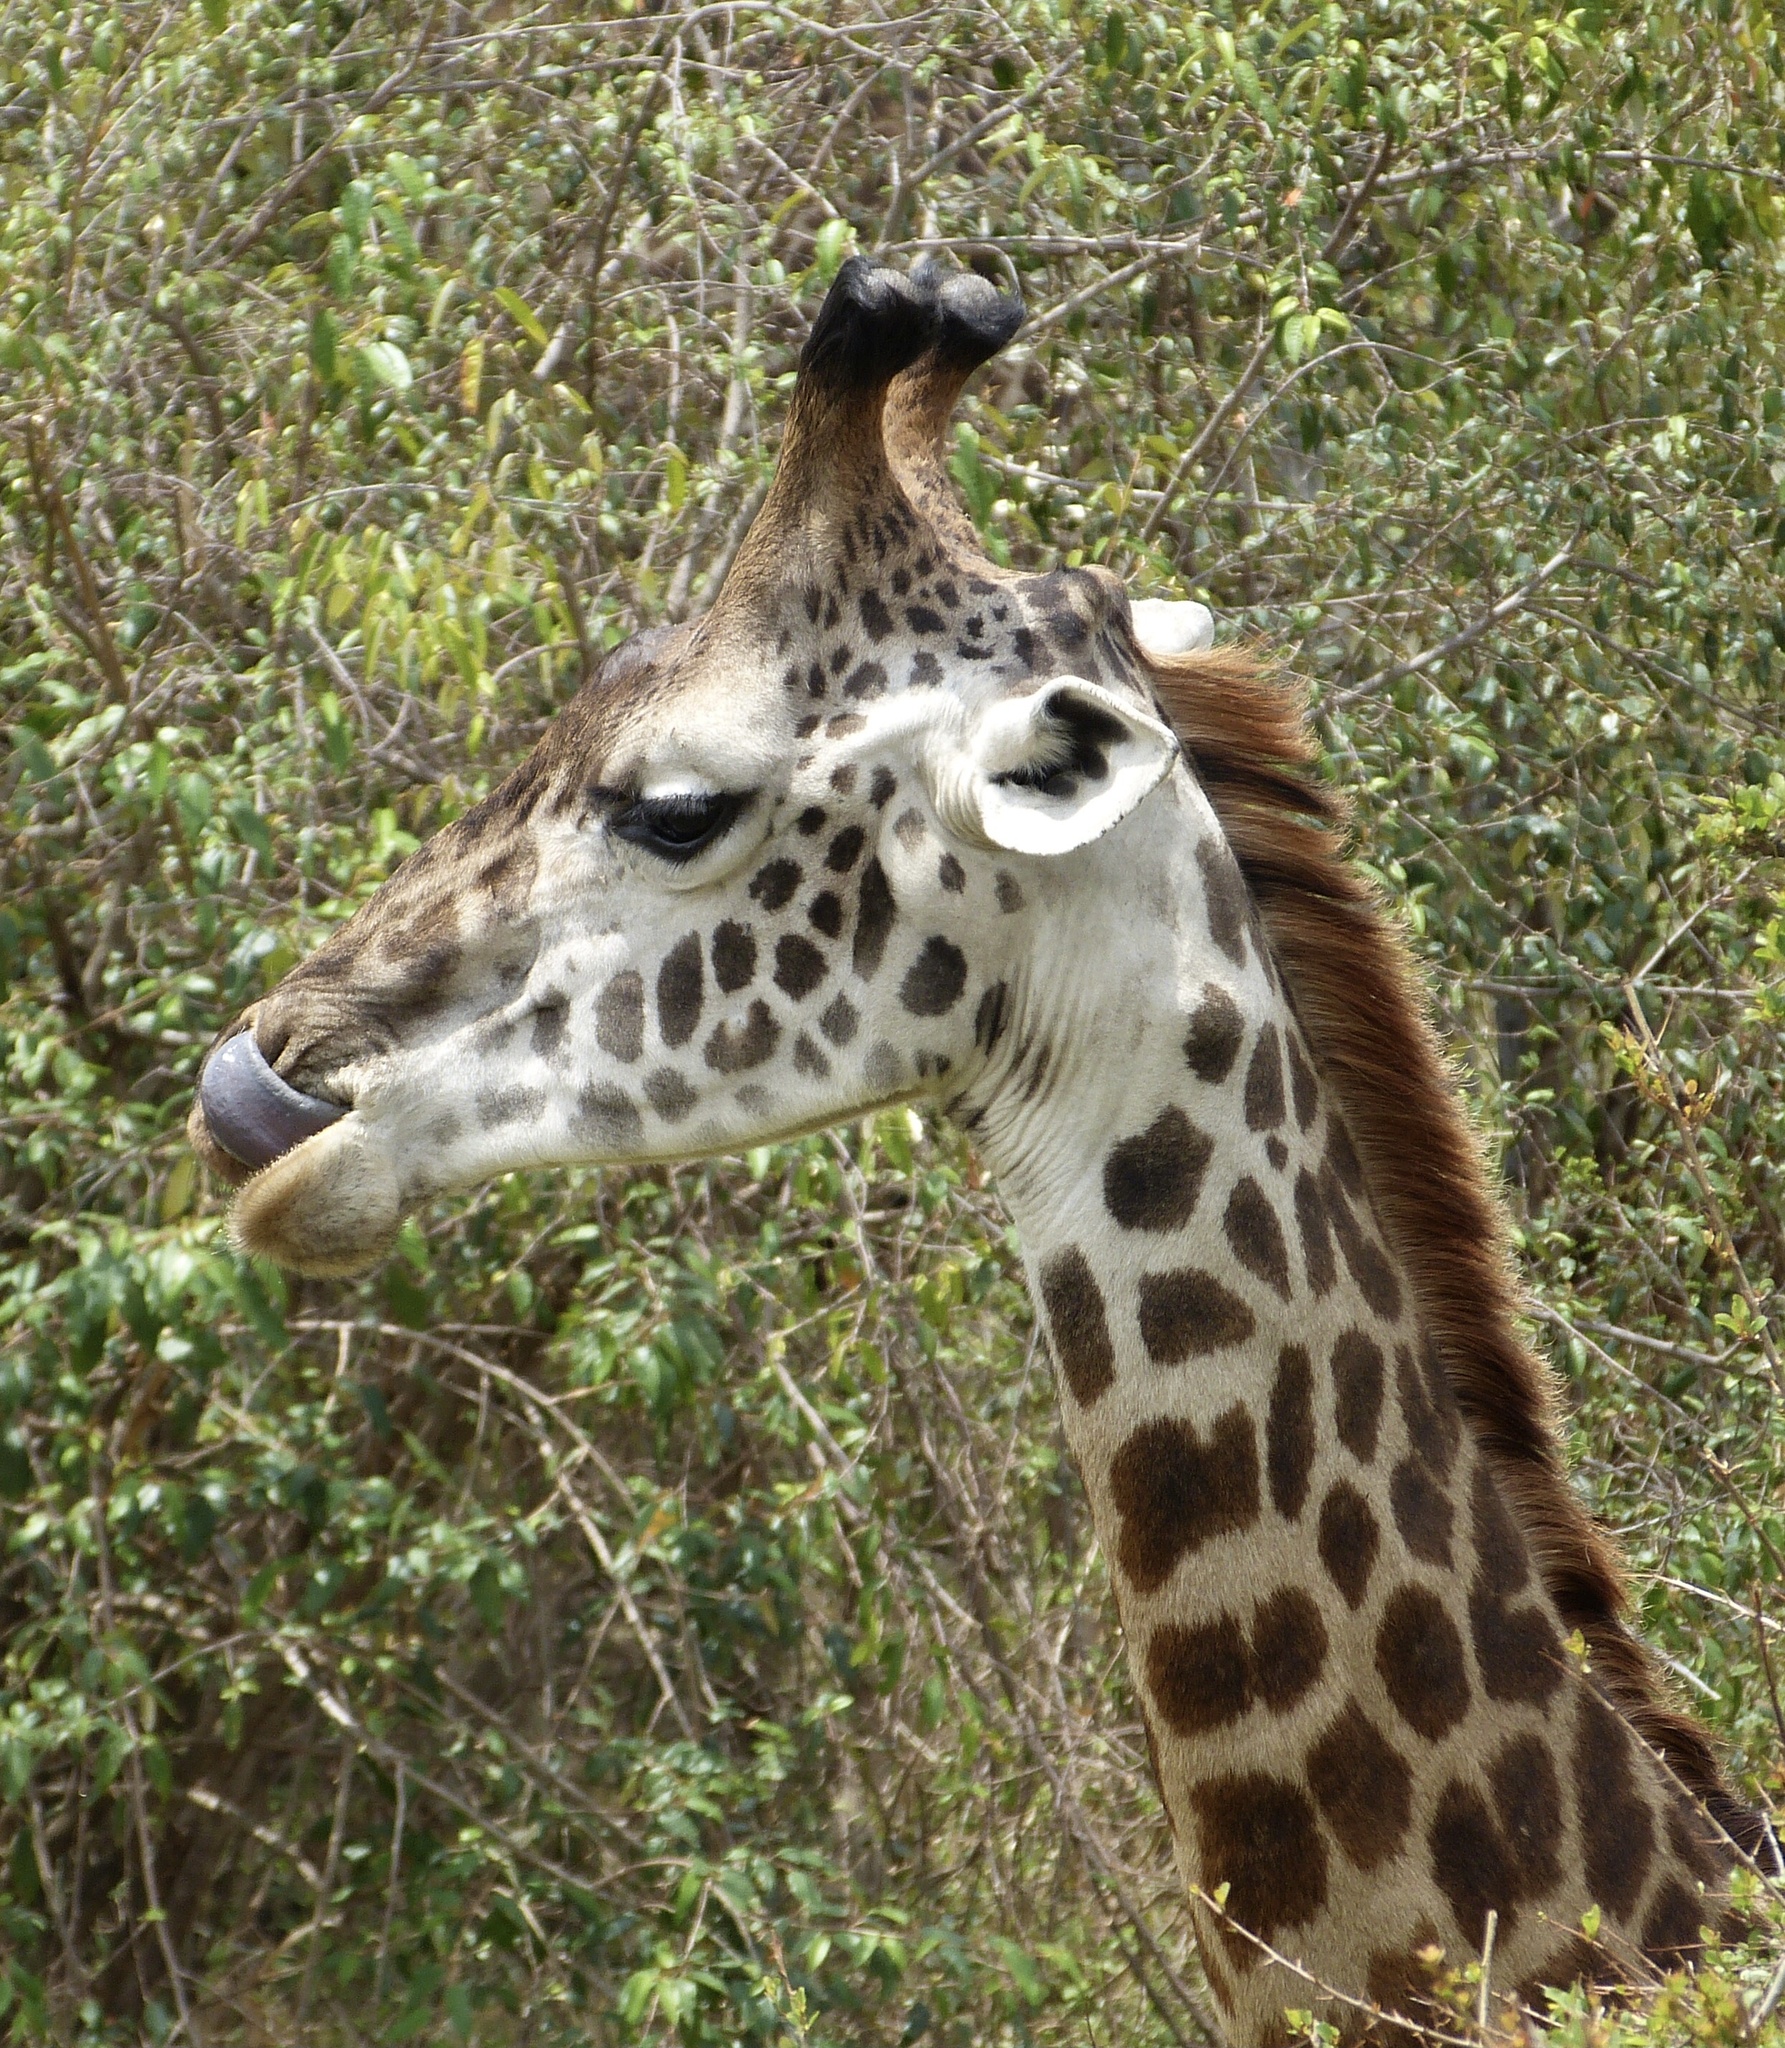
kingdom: Animalia
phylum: Chordata
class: Mammalia
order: Artiodactyla
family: Giraffidae
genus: Giraffa
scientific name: Giraffa tippelskirchi
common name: Masai giraffe
